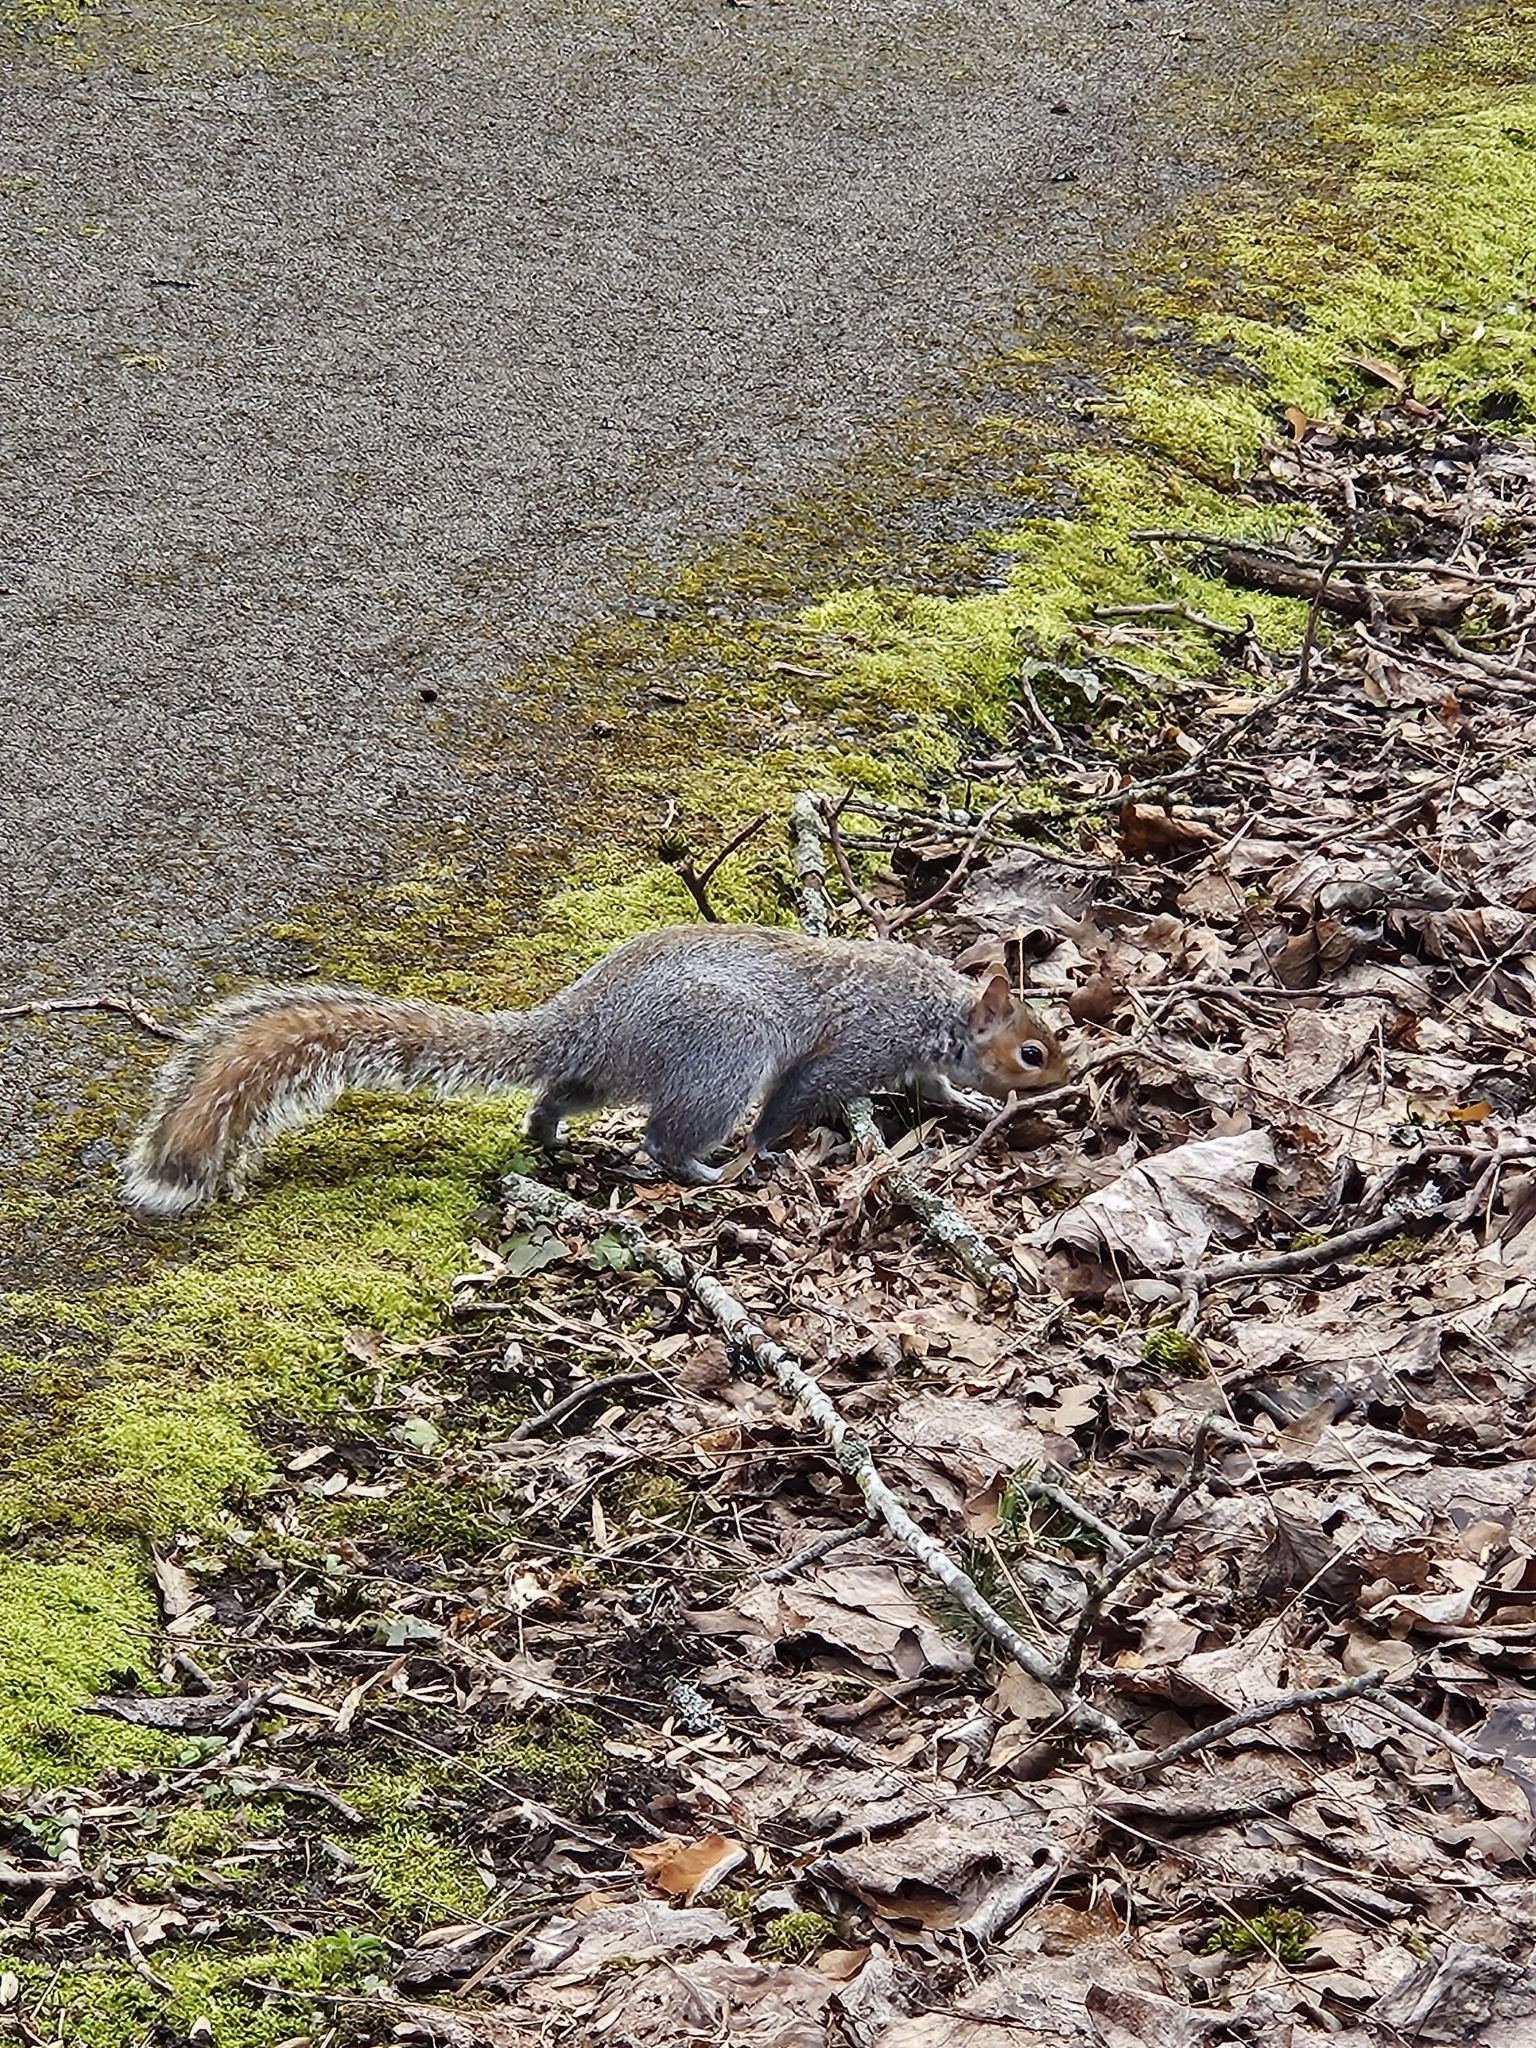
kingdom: Animalia
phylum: Chordata
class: Mammalia
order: Rodentia
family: Sciuridae
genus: Sciurus
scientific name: Sciurus carolinensis
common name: Eastern gray squirrel
